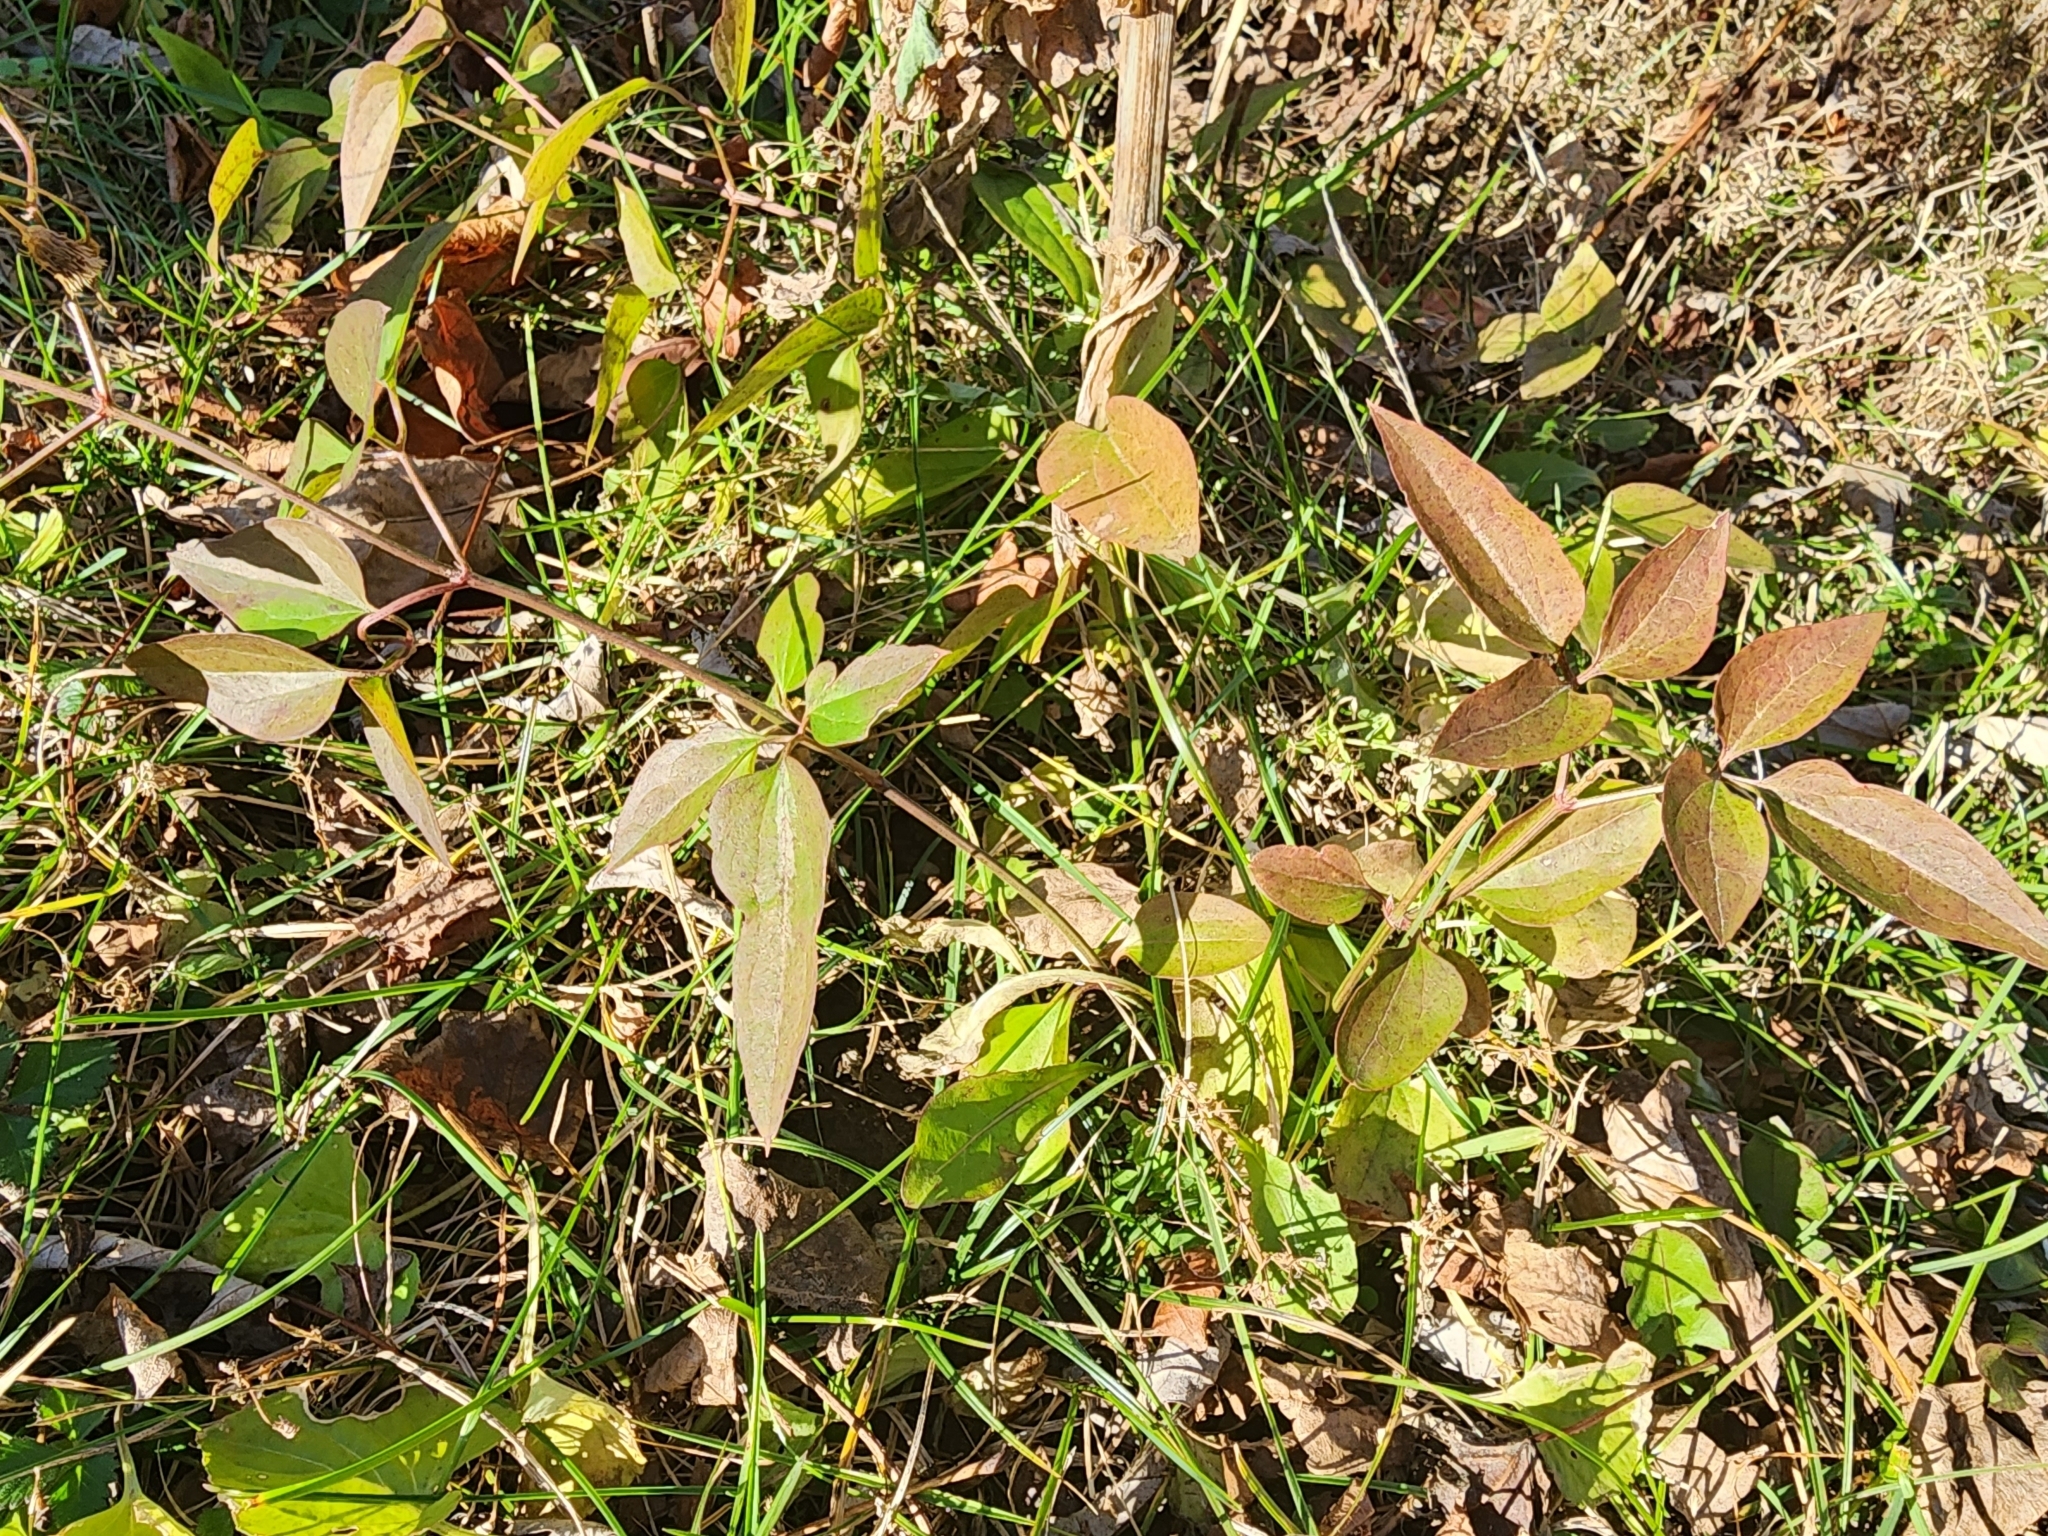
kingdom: Plantae
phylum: Tracheophyta
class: Magnoliopsida
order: Ranunculales
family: Ranunculaceae
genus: Clematis
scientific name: Clematis terniflora
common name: Sweet autumn clematis
